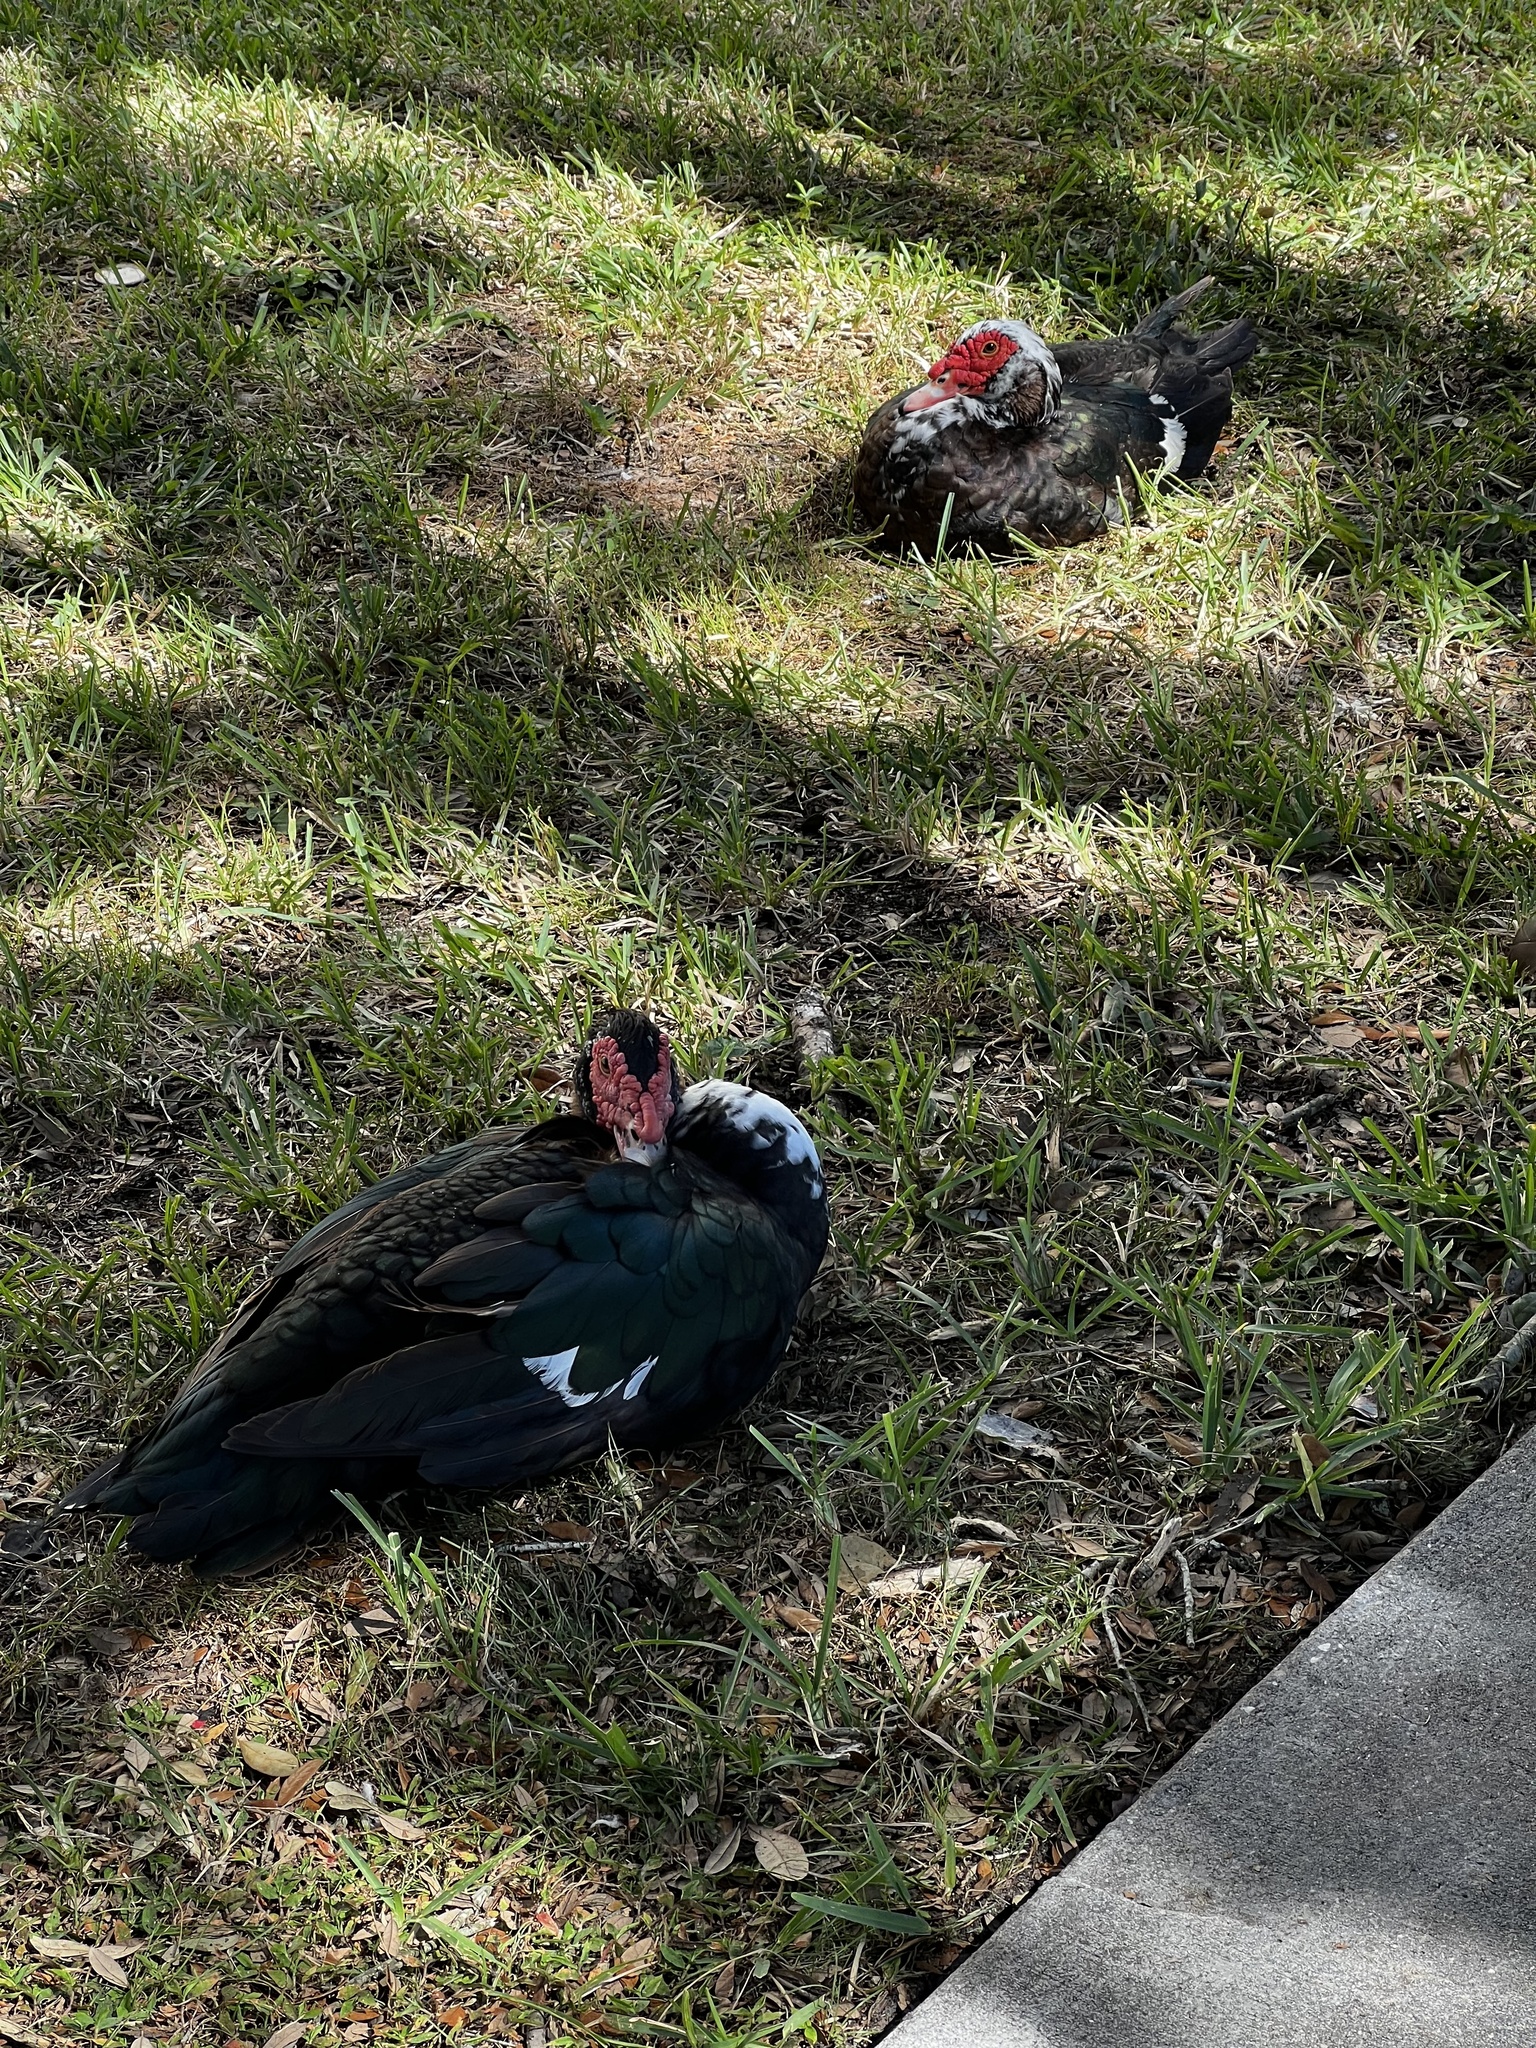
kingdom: Animalia
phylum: Chordata
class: Aves
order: Anseriformes
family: Anatidae
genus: Cairina
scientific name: Cairina moschata
